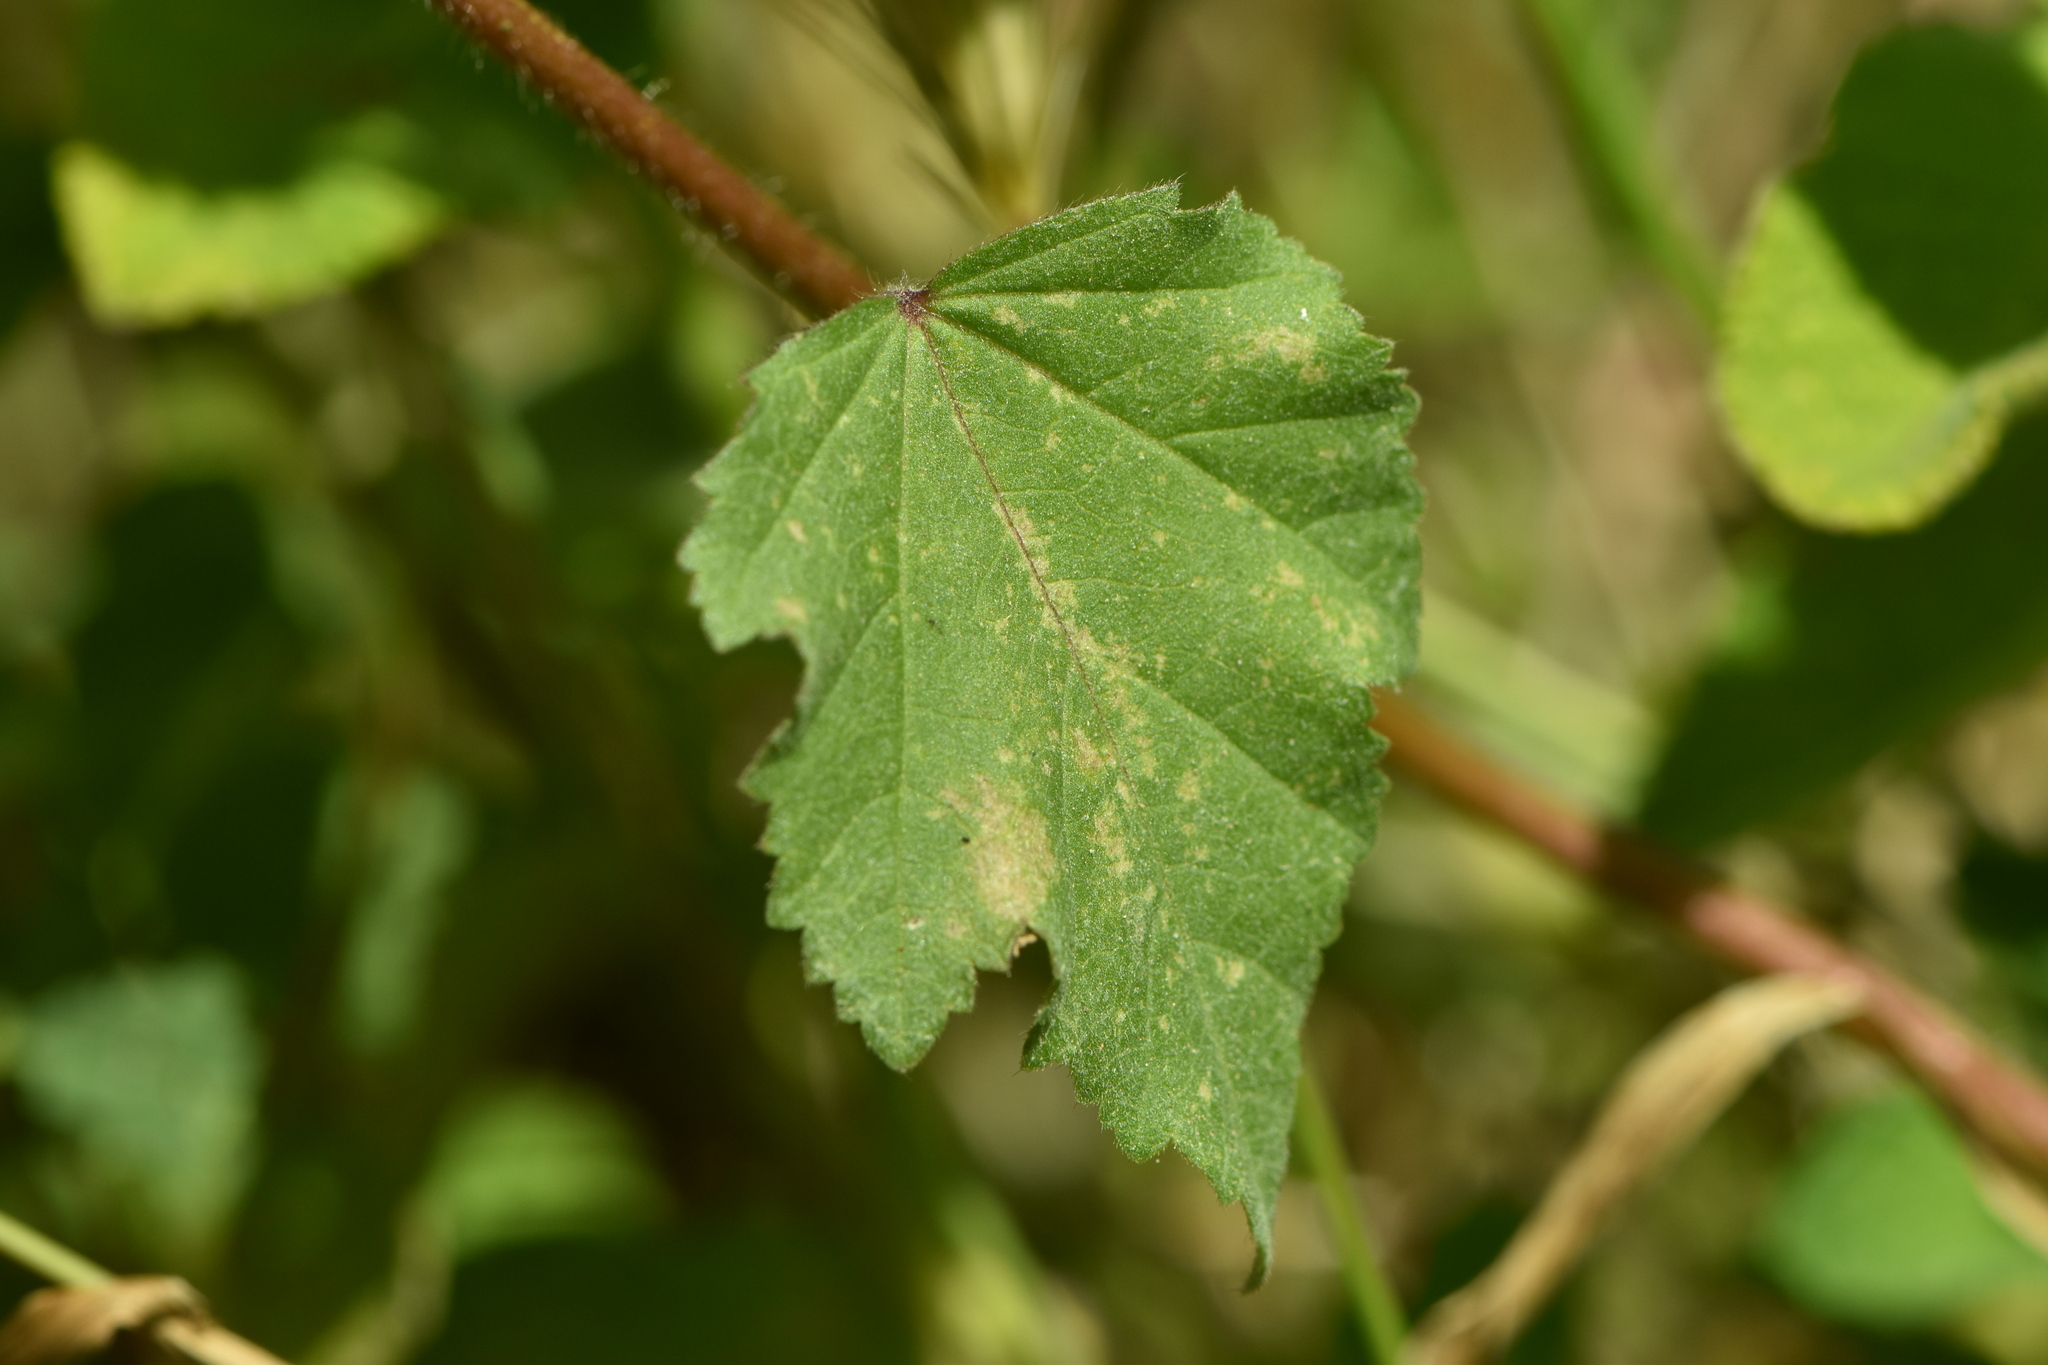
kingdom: Plantae
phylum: Tracheophyta
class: Magnoliopsida
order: Malvales
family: Malvaceae
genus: Malva
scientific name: Malva trimestris
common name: Royal mallow
